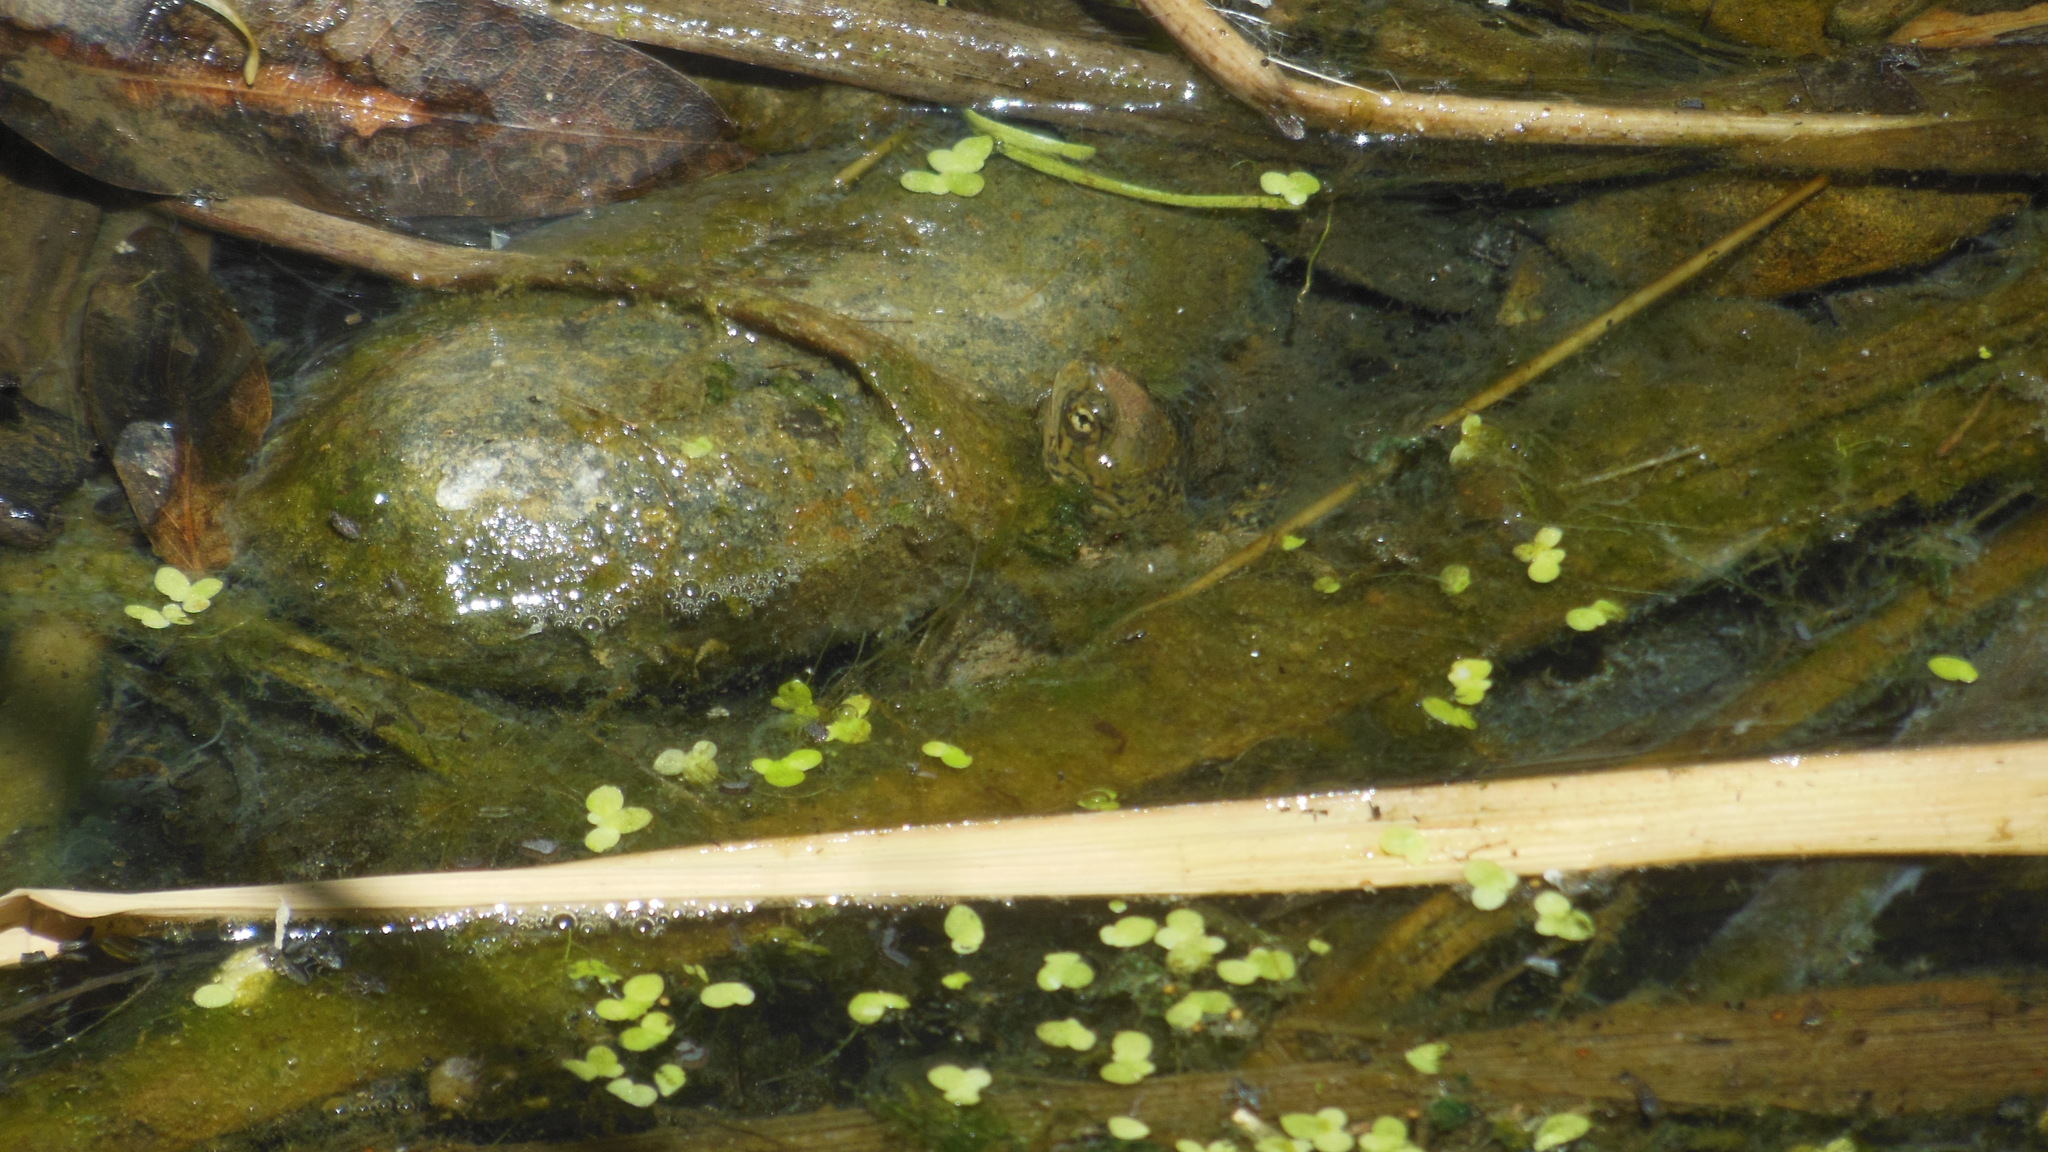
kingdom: Animalia
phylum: Chordata
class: Testudines
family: Emydidae
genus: Actinemys
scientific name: Actinemys marmorata
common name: Western pond turtle
